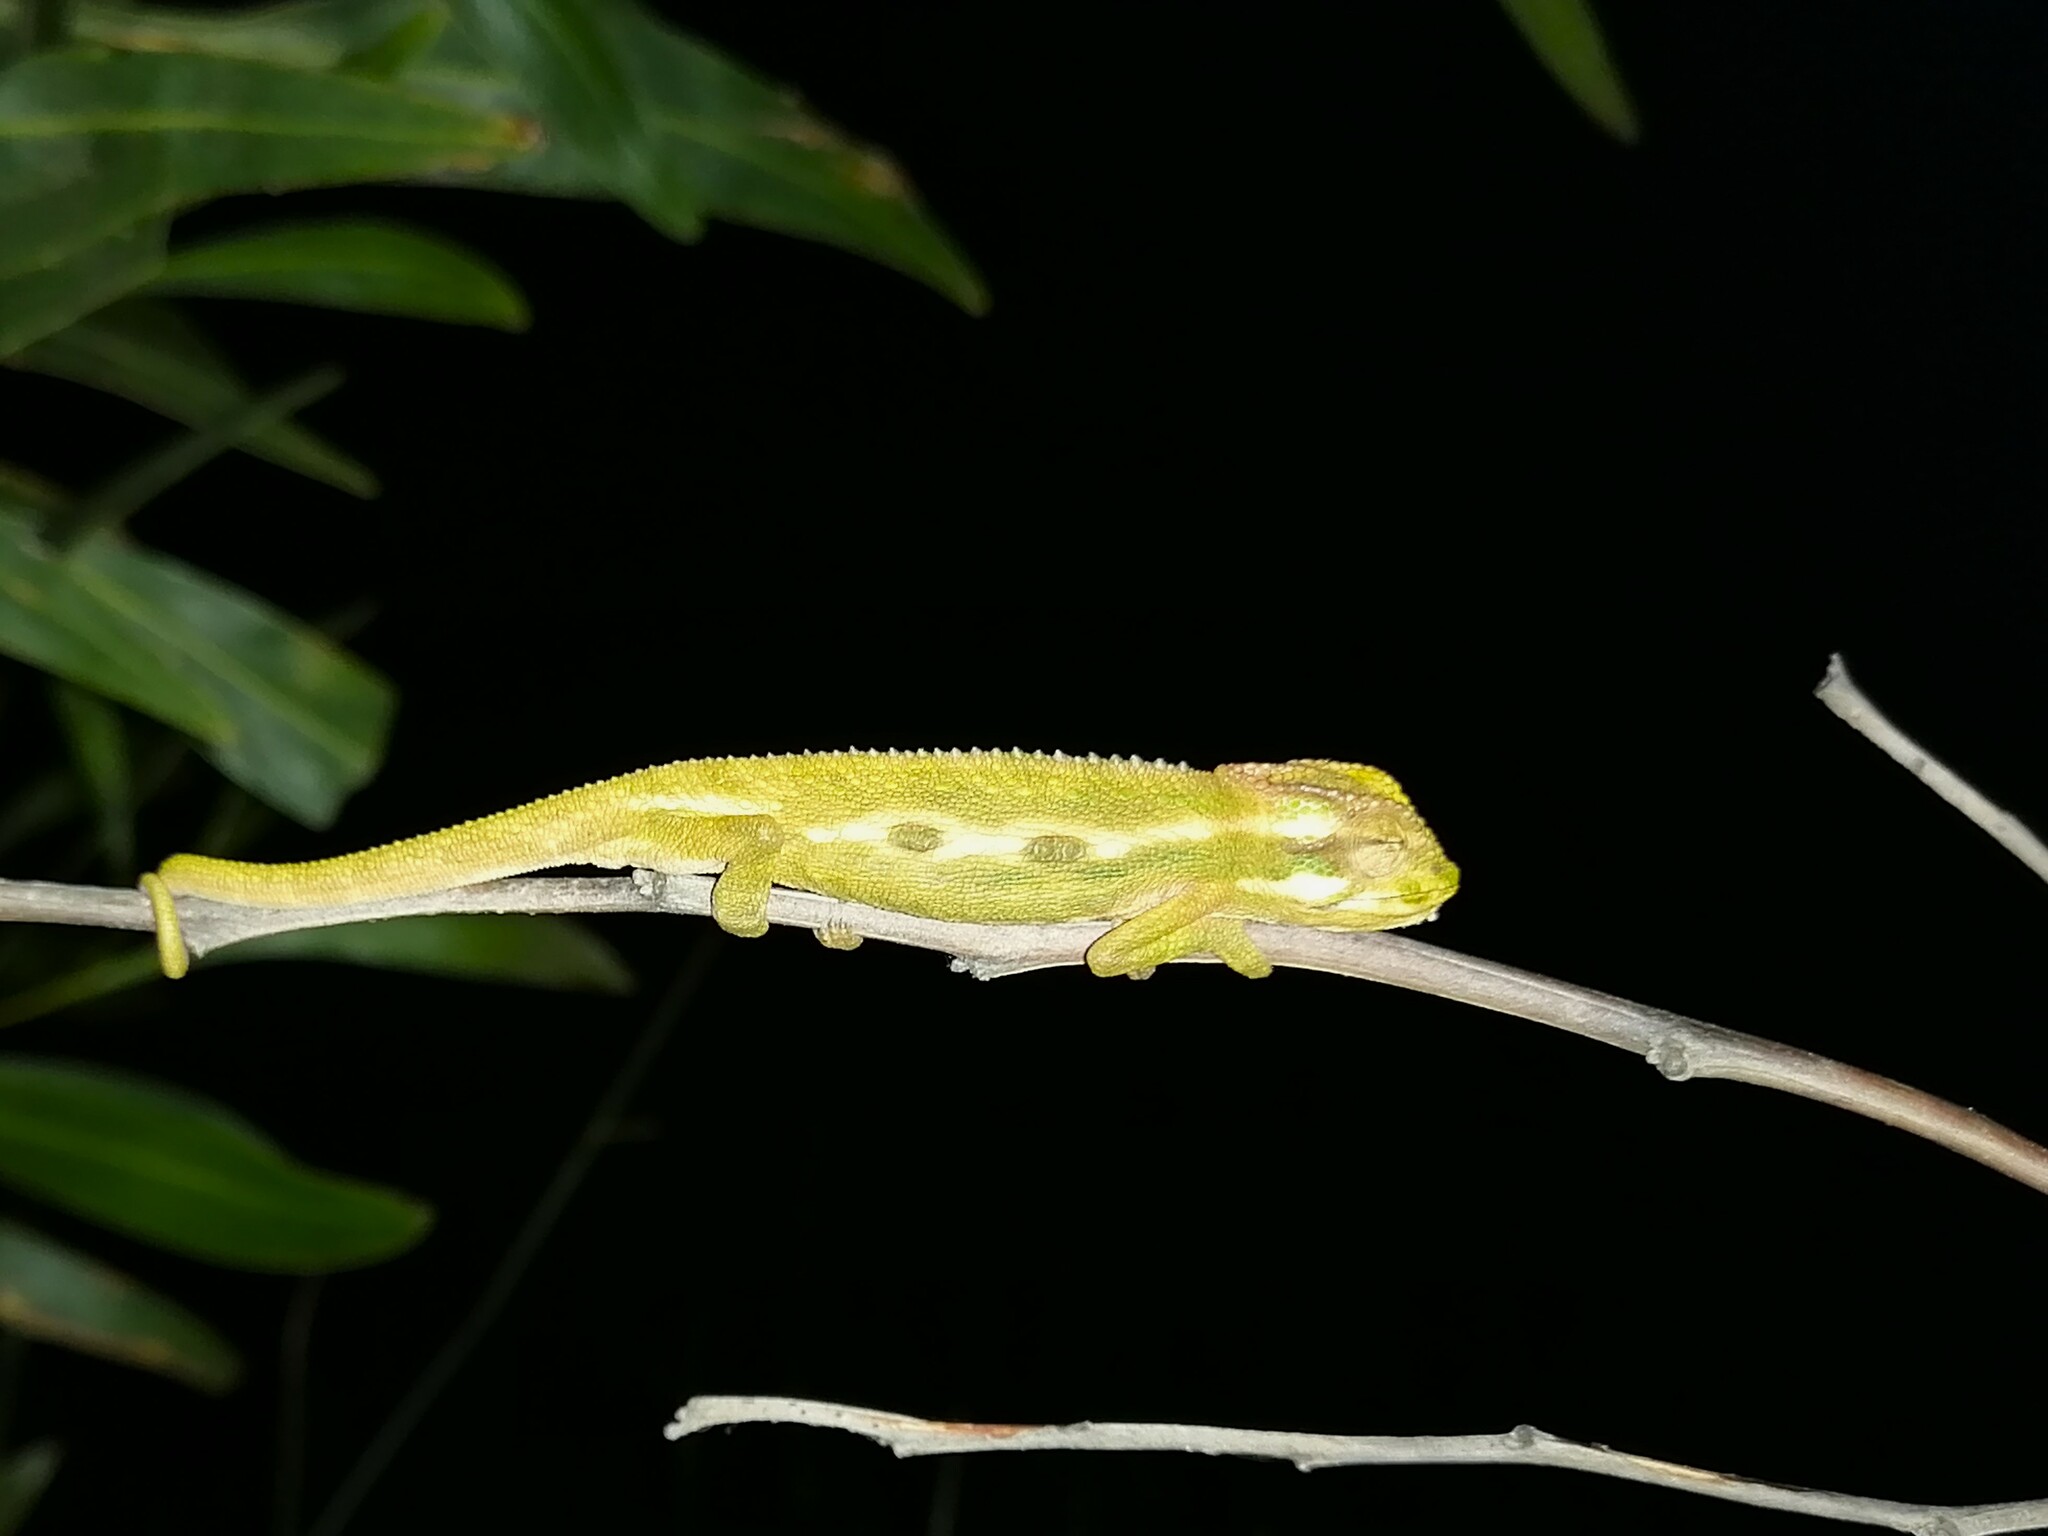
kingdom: Animalia
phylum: Chordata
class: Squamata
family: Chamaeleonidae
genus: Bradypodion
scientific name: Bradypodion pumilum
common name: Cape dwarf chameleon
